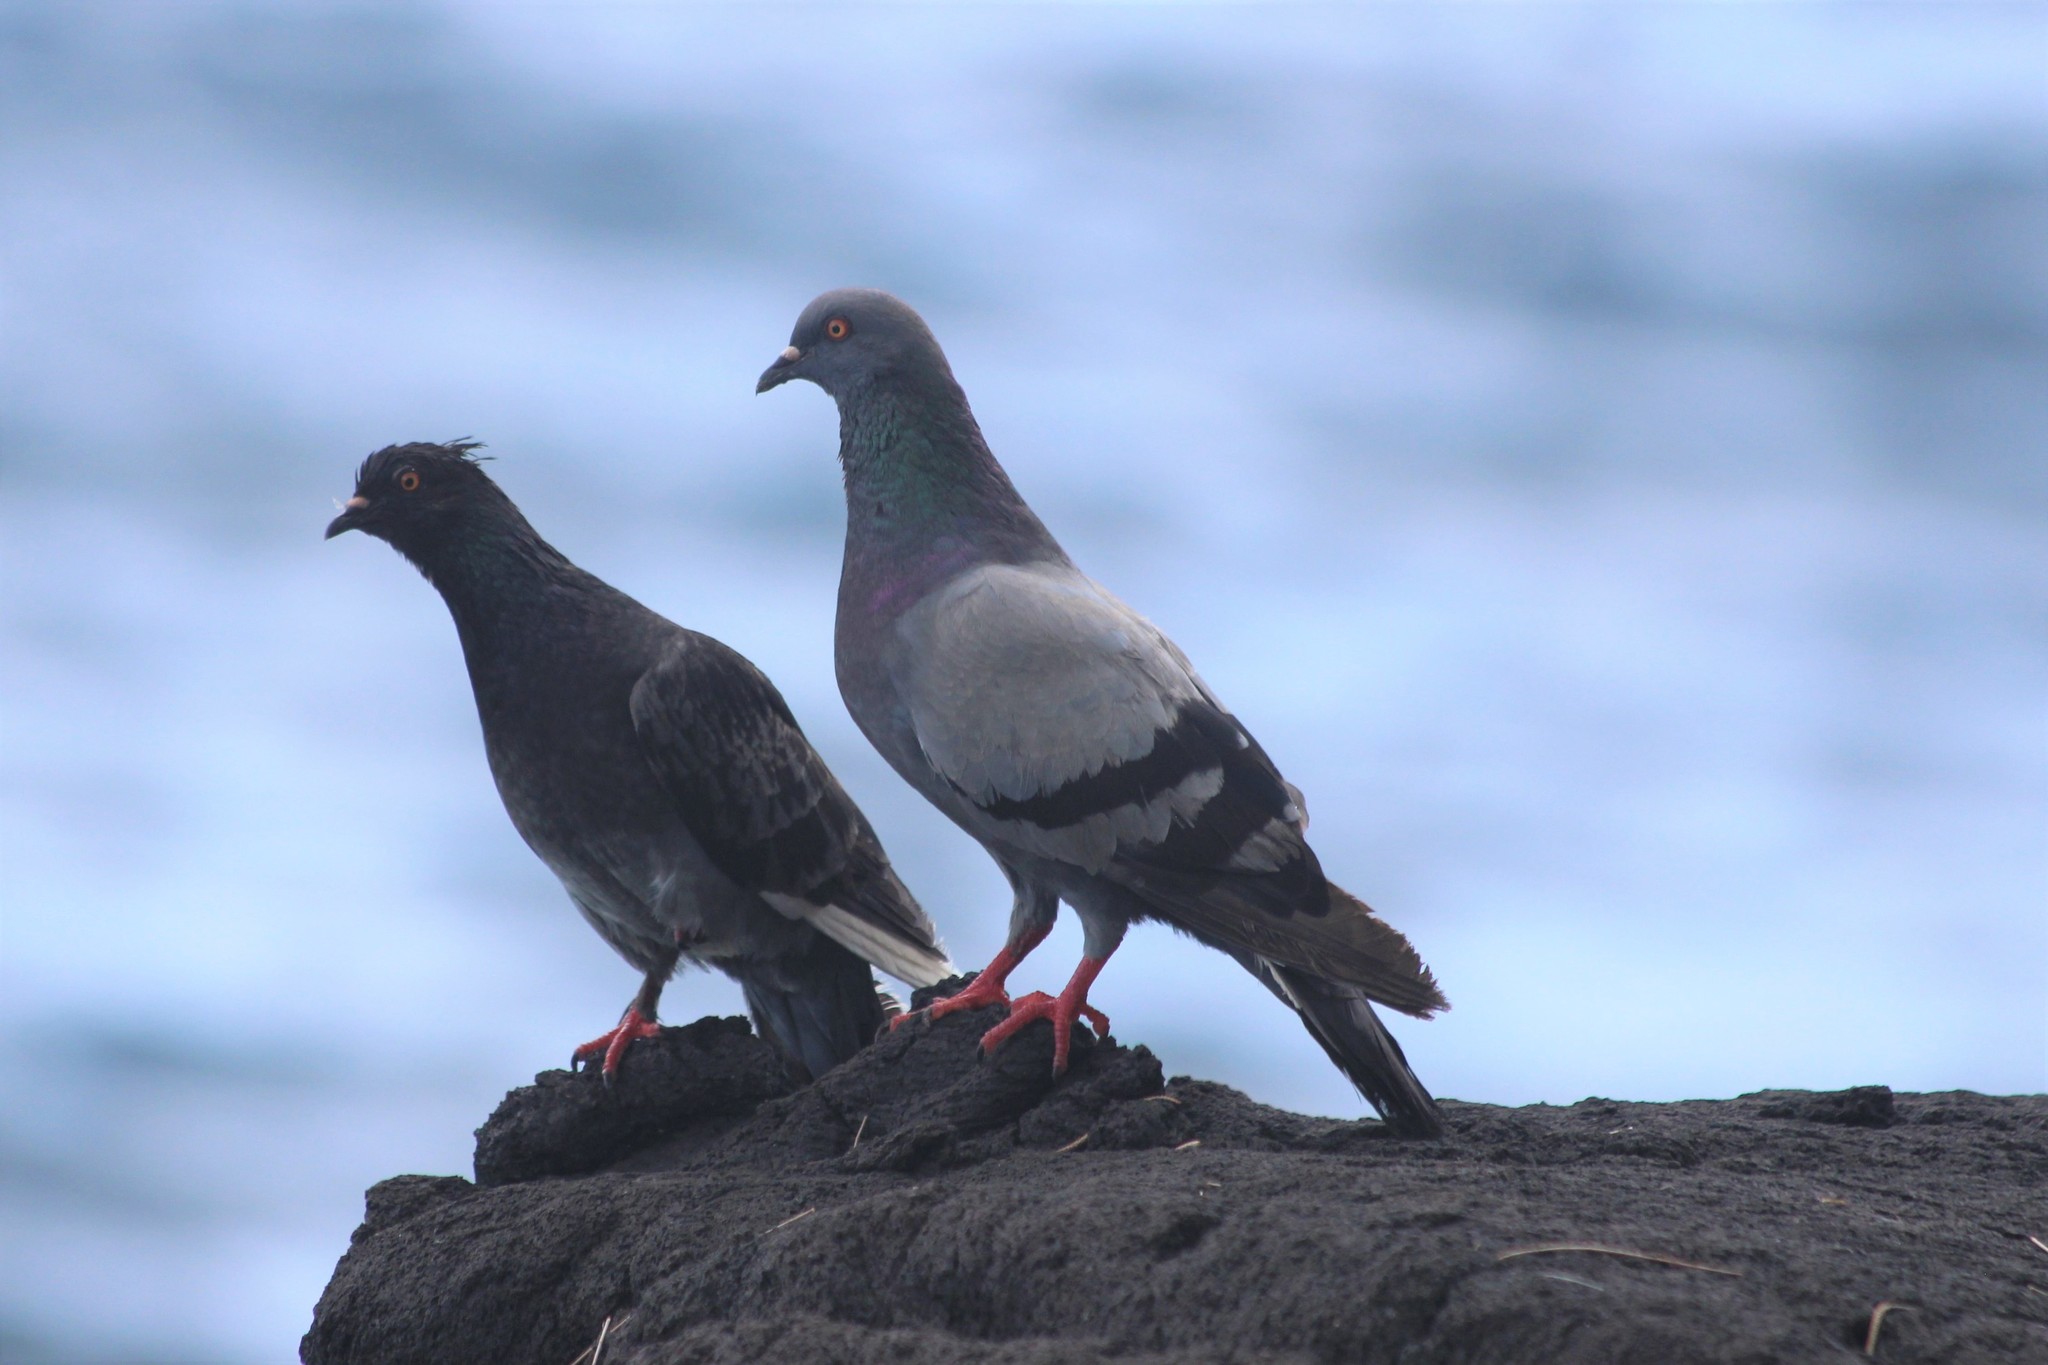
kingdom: Animalia
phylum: Chordata
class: Aves
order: Columbiformes
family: Columbidae
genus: Columba
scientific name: Columba livia
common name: Rock pigeon
